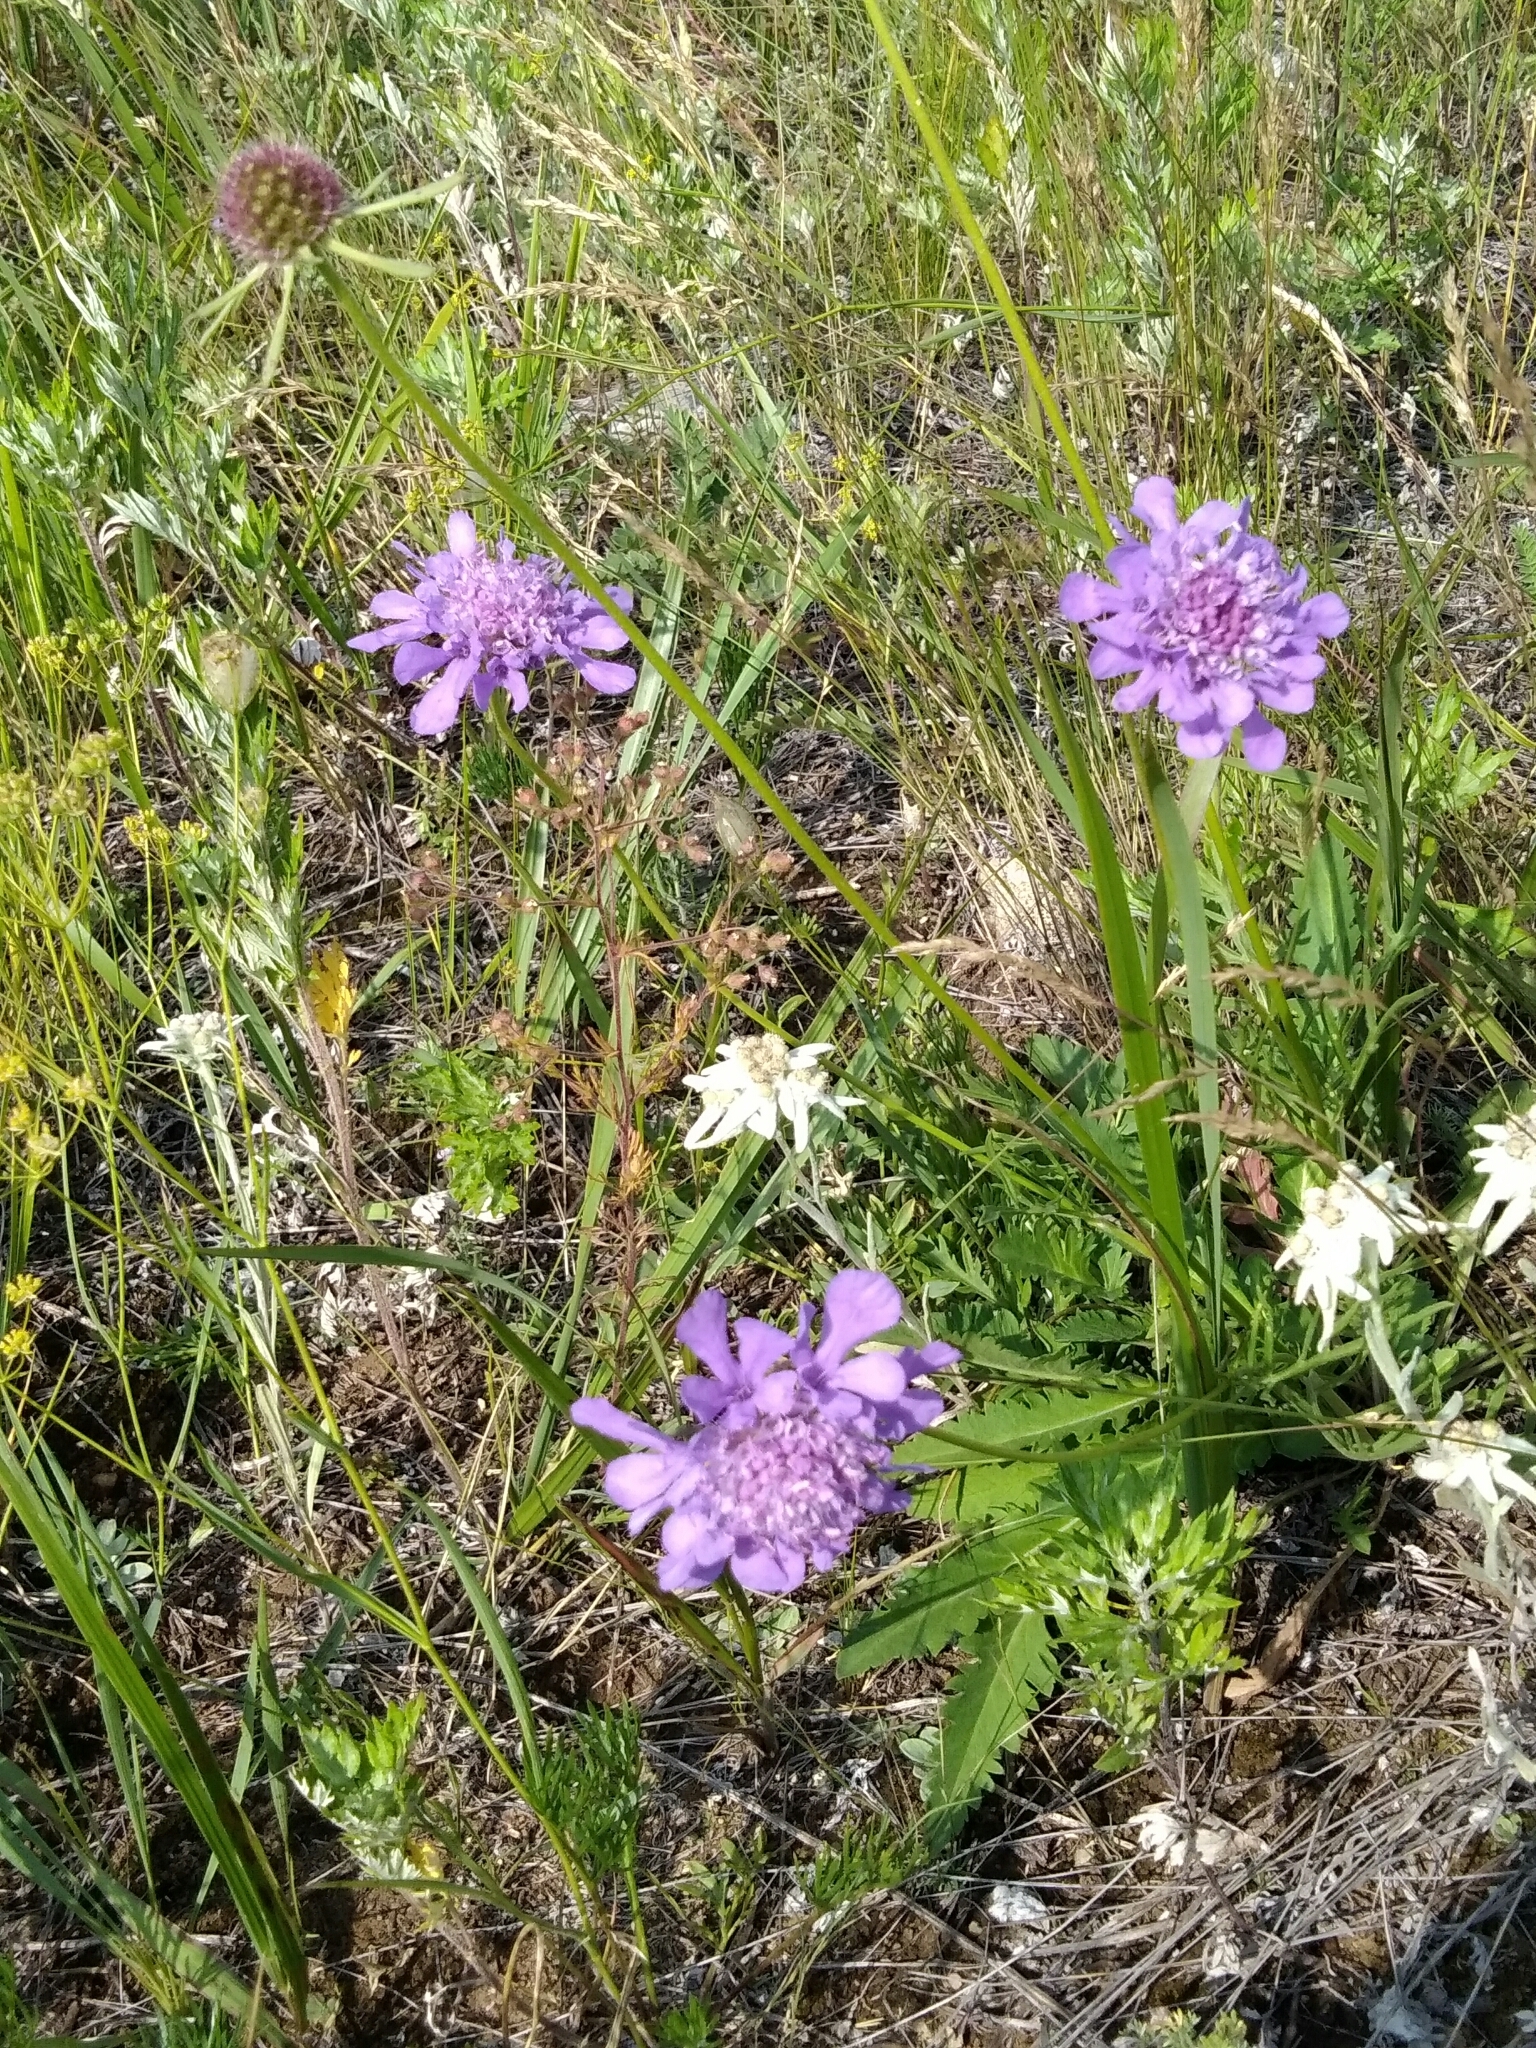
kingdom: Plantae
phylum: Tracheophyta
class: Magnoliopsida
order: Dipsacales
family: Caprifoliaceae
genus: Scabiosa
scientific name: Scabiosa comosa
